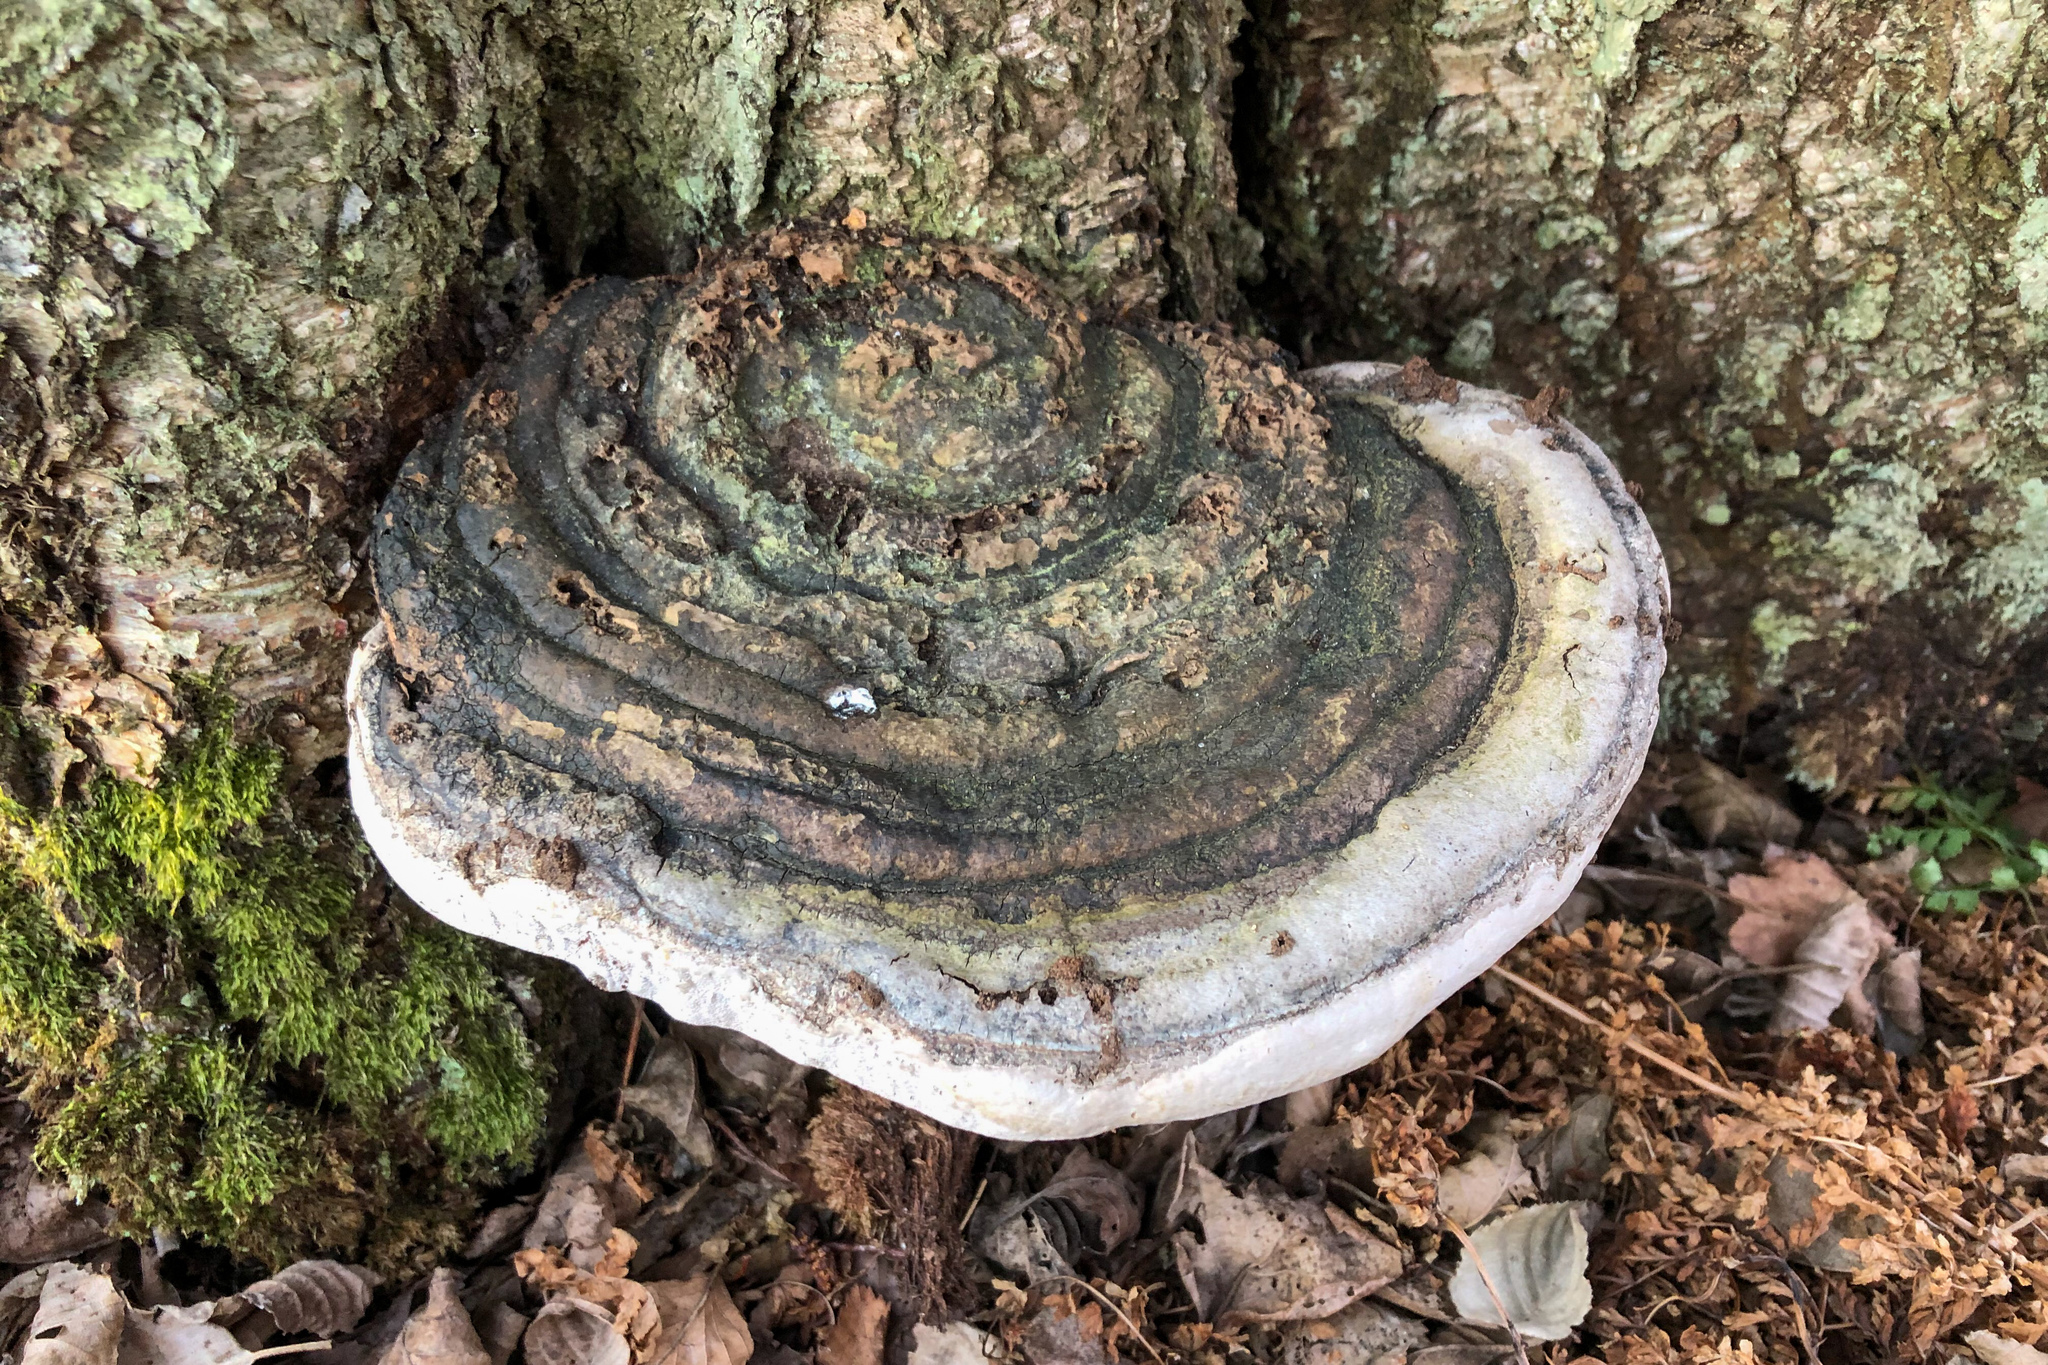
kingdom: Fungi
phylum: Basidiomycota
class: Agaricomycetes
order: Hymenochaetales
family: Hymenochaetaceae
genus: Phellinus
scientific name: Phellinus igniarius
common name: Willow bracket
